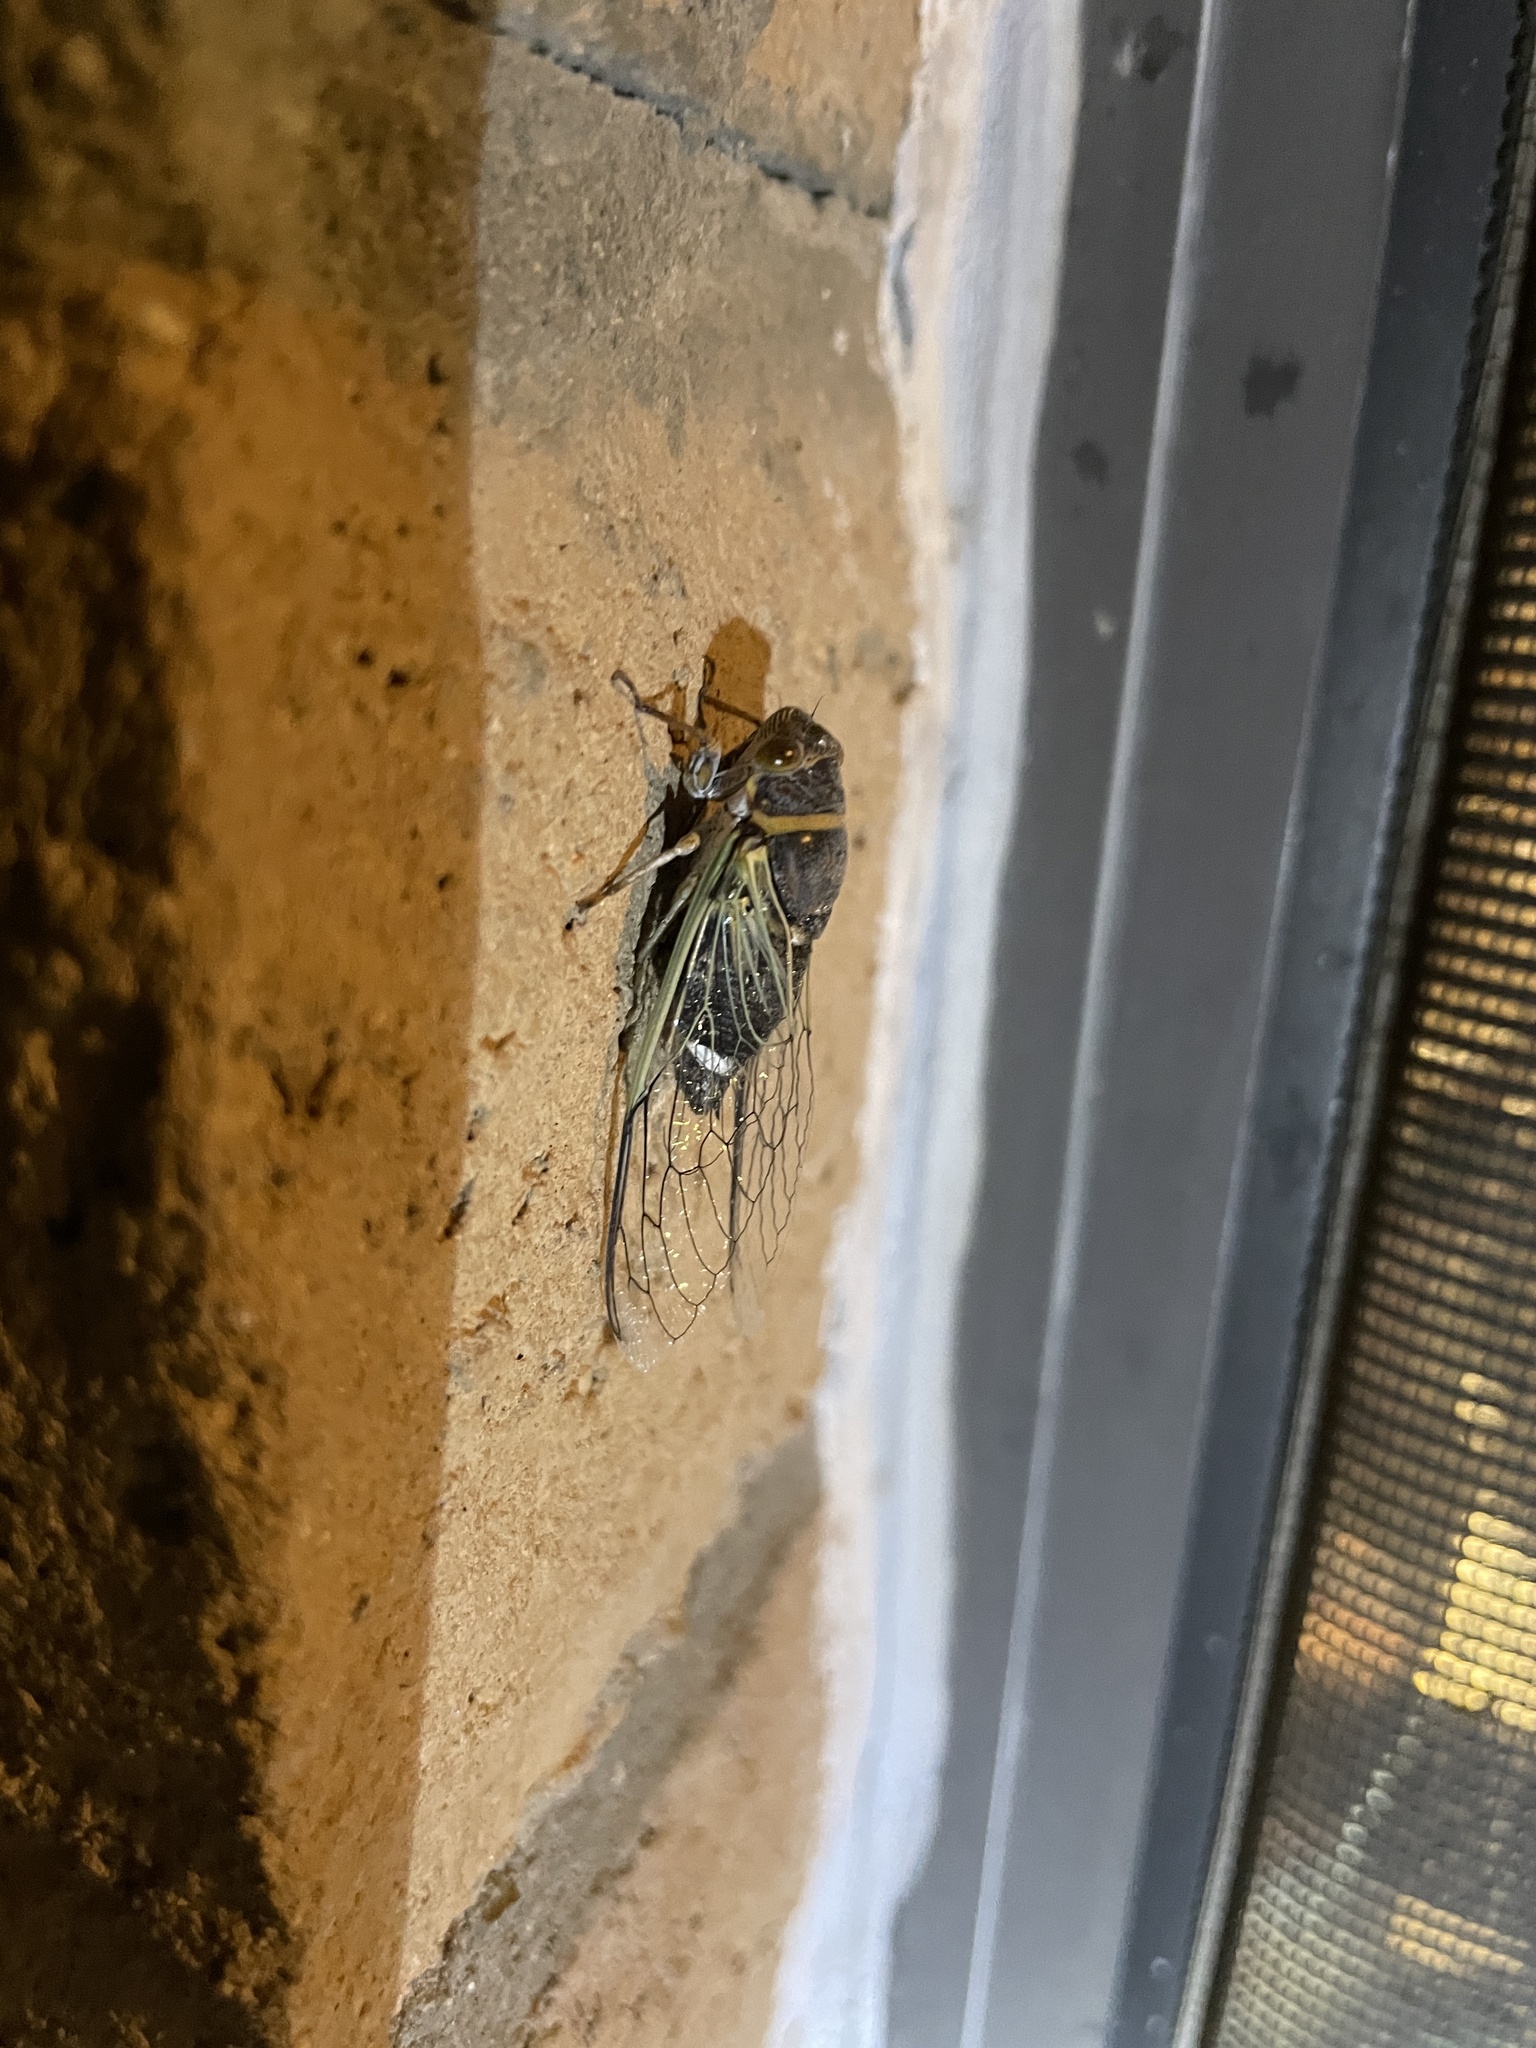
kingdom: Animalia
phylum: Arthropoda
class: Insecta
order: Hemiptera
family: Cicadidae
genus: Diceroprocta
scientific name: Diceroprocta apache
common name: Desert cicada
